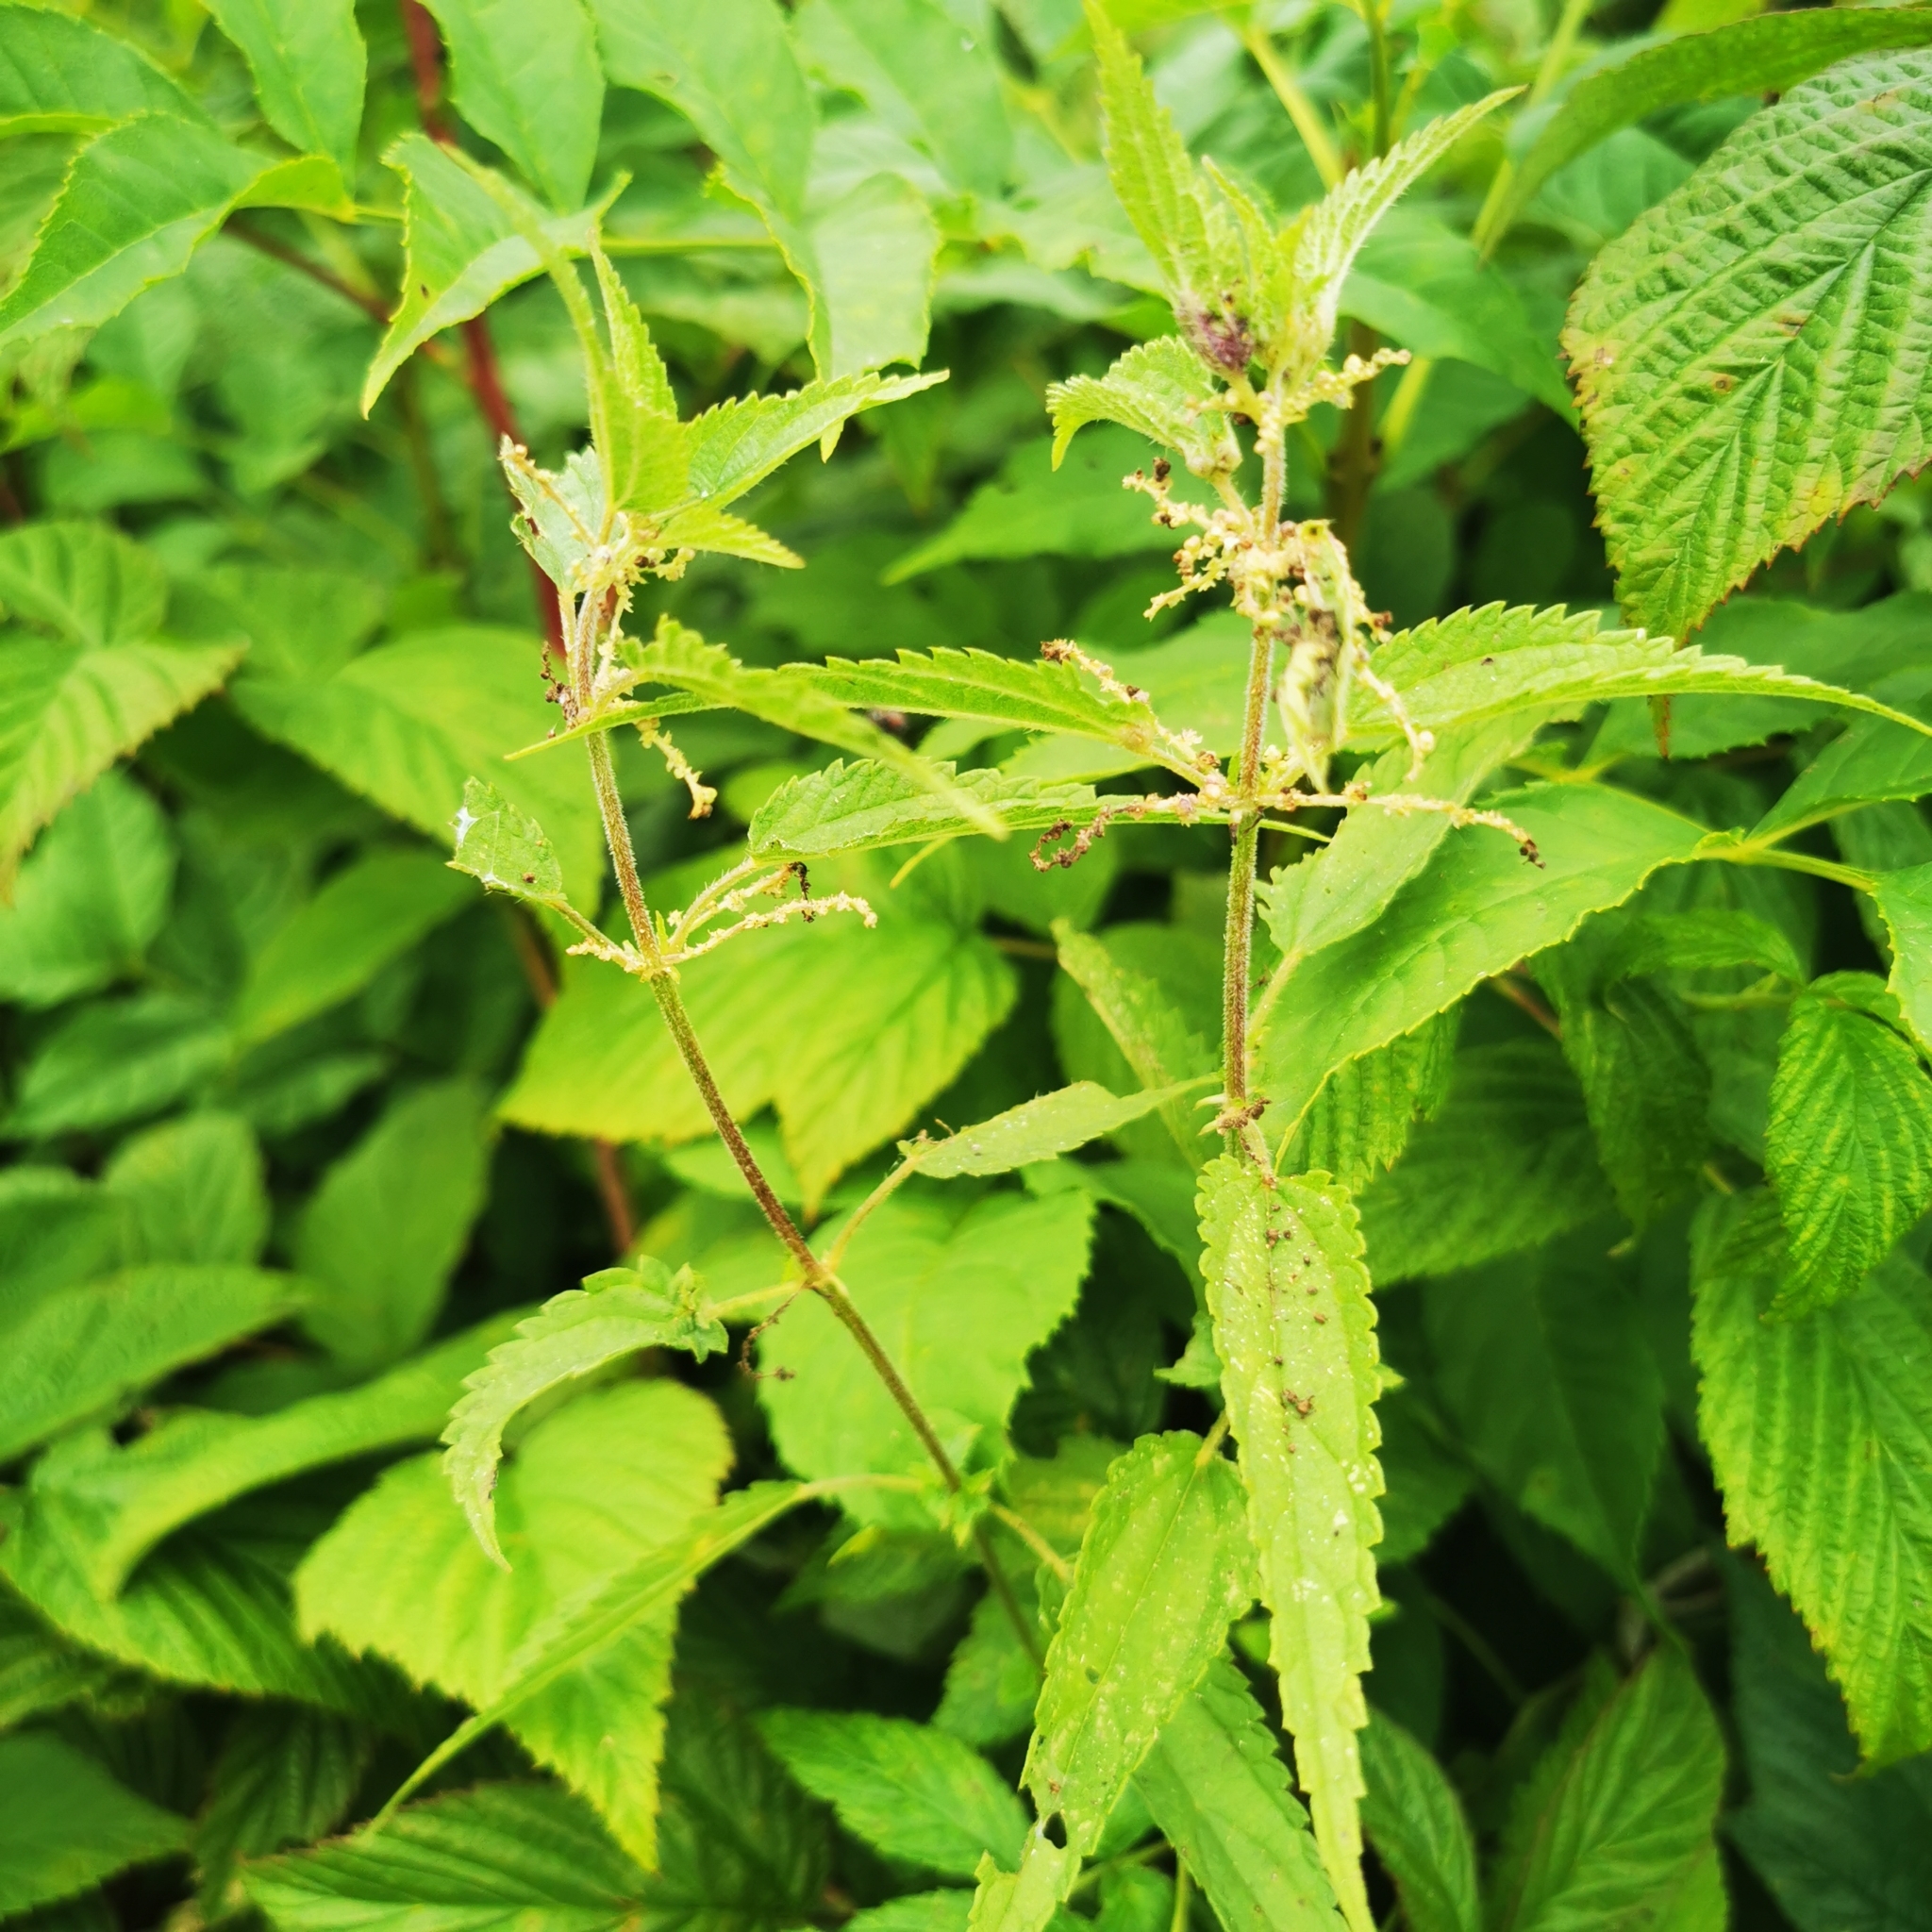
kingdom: Plantae
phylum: Tracheophyta
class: Magnoliopsida
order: Rosales
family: Urticaceae
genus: Urtica
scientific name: Urtica dioica
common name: Common nettle
